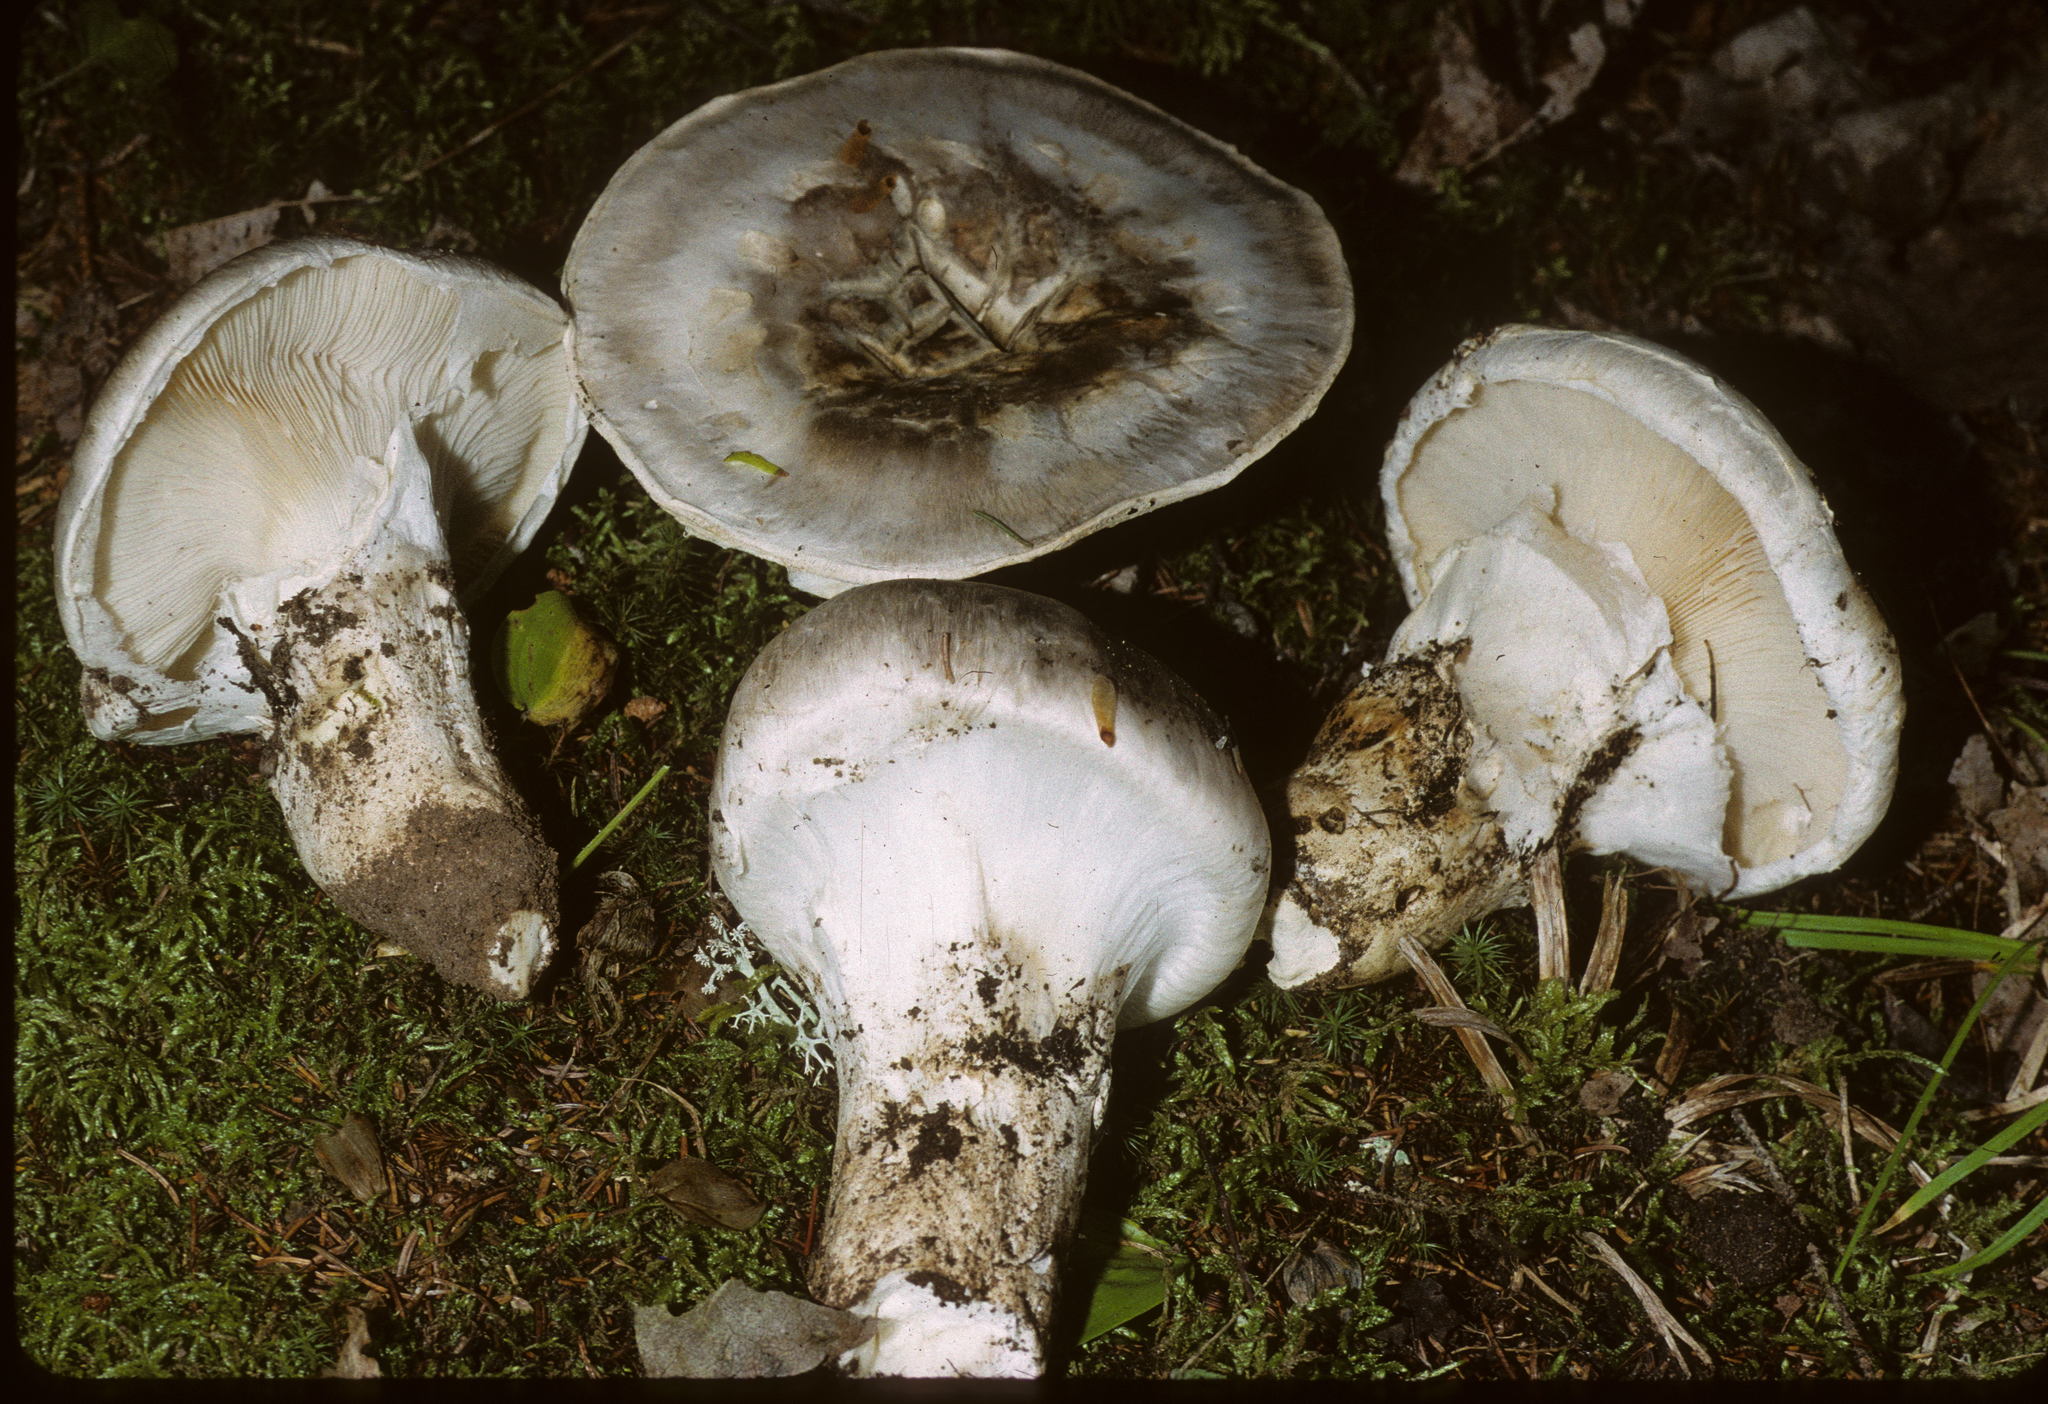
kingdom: Fungi
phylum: Basidiomycota
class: Agaricomycetes
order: Agaricales
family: Biannulariaceae
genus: Catathelasma
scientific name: Catathelasma ventricosum
